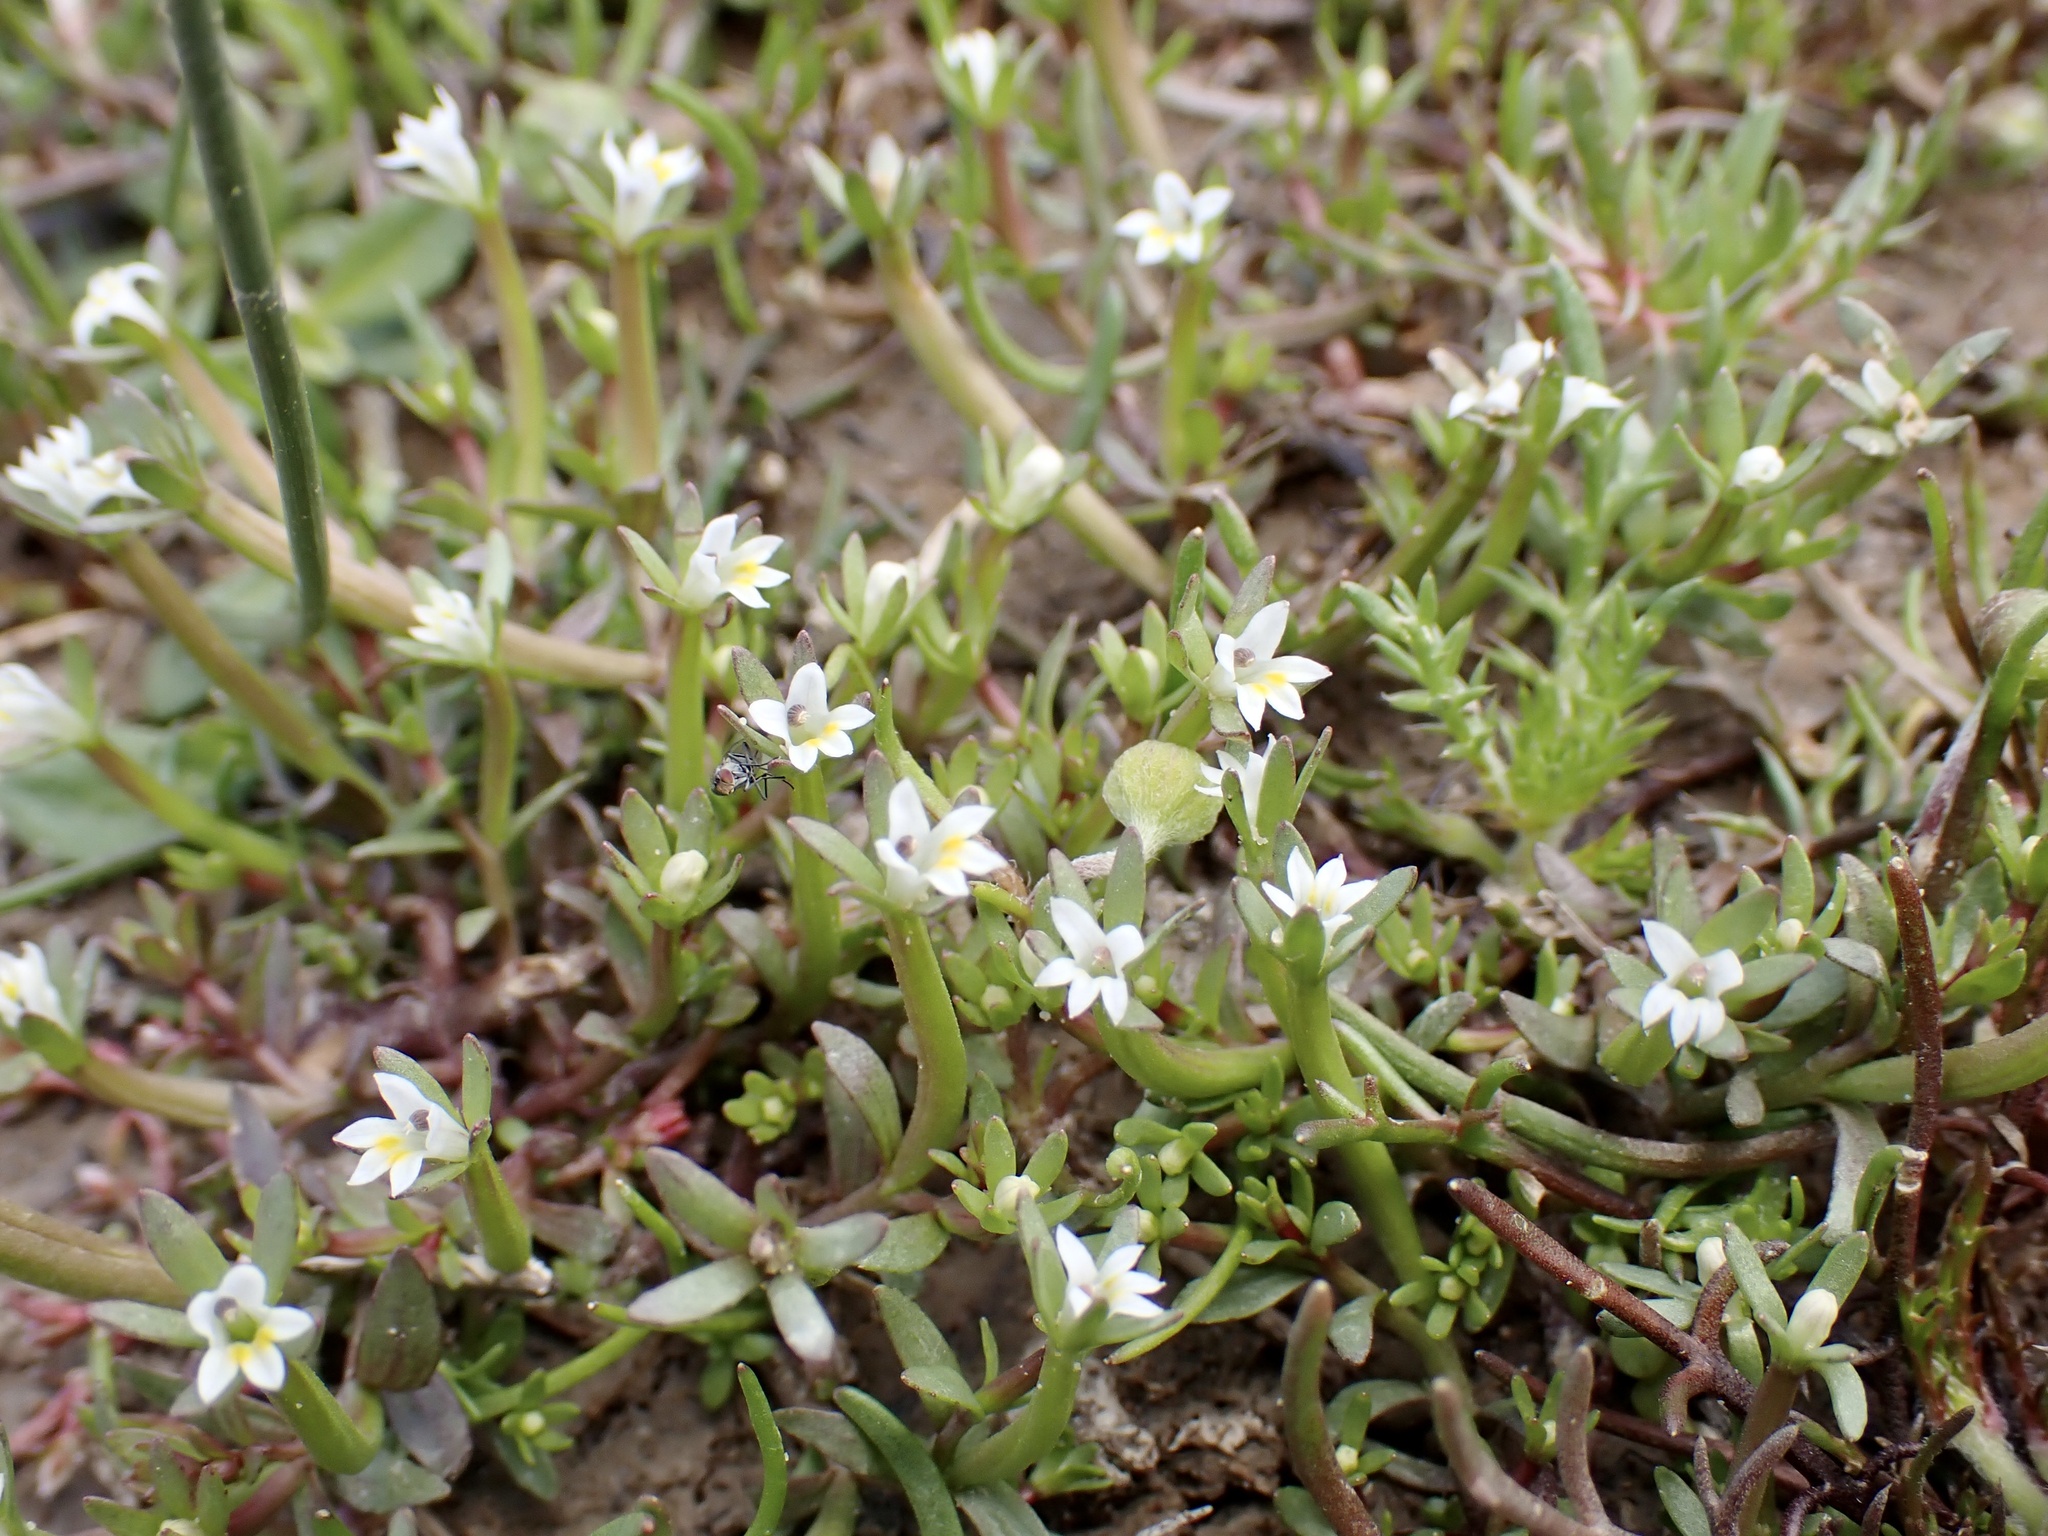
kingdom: Plantae
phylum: Tracheophyta
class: Magnoliopsida
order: Asterales
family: Campanulaceae
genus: Downingia
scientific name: Downingia pusilla
